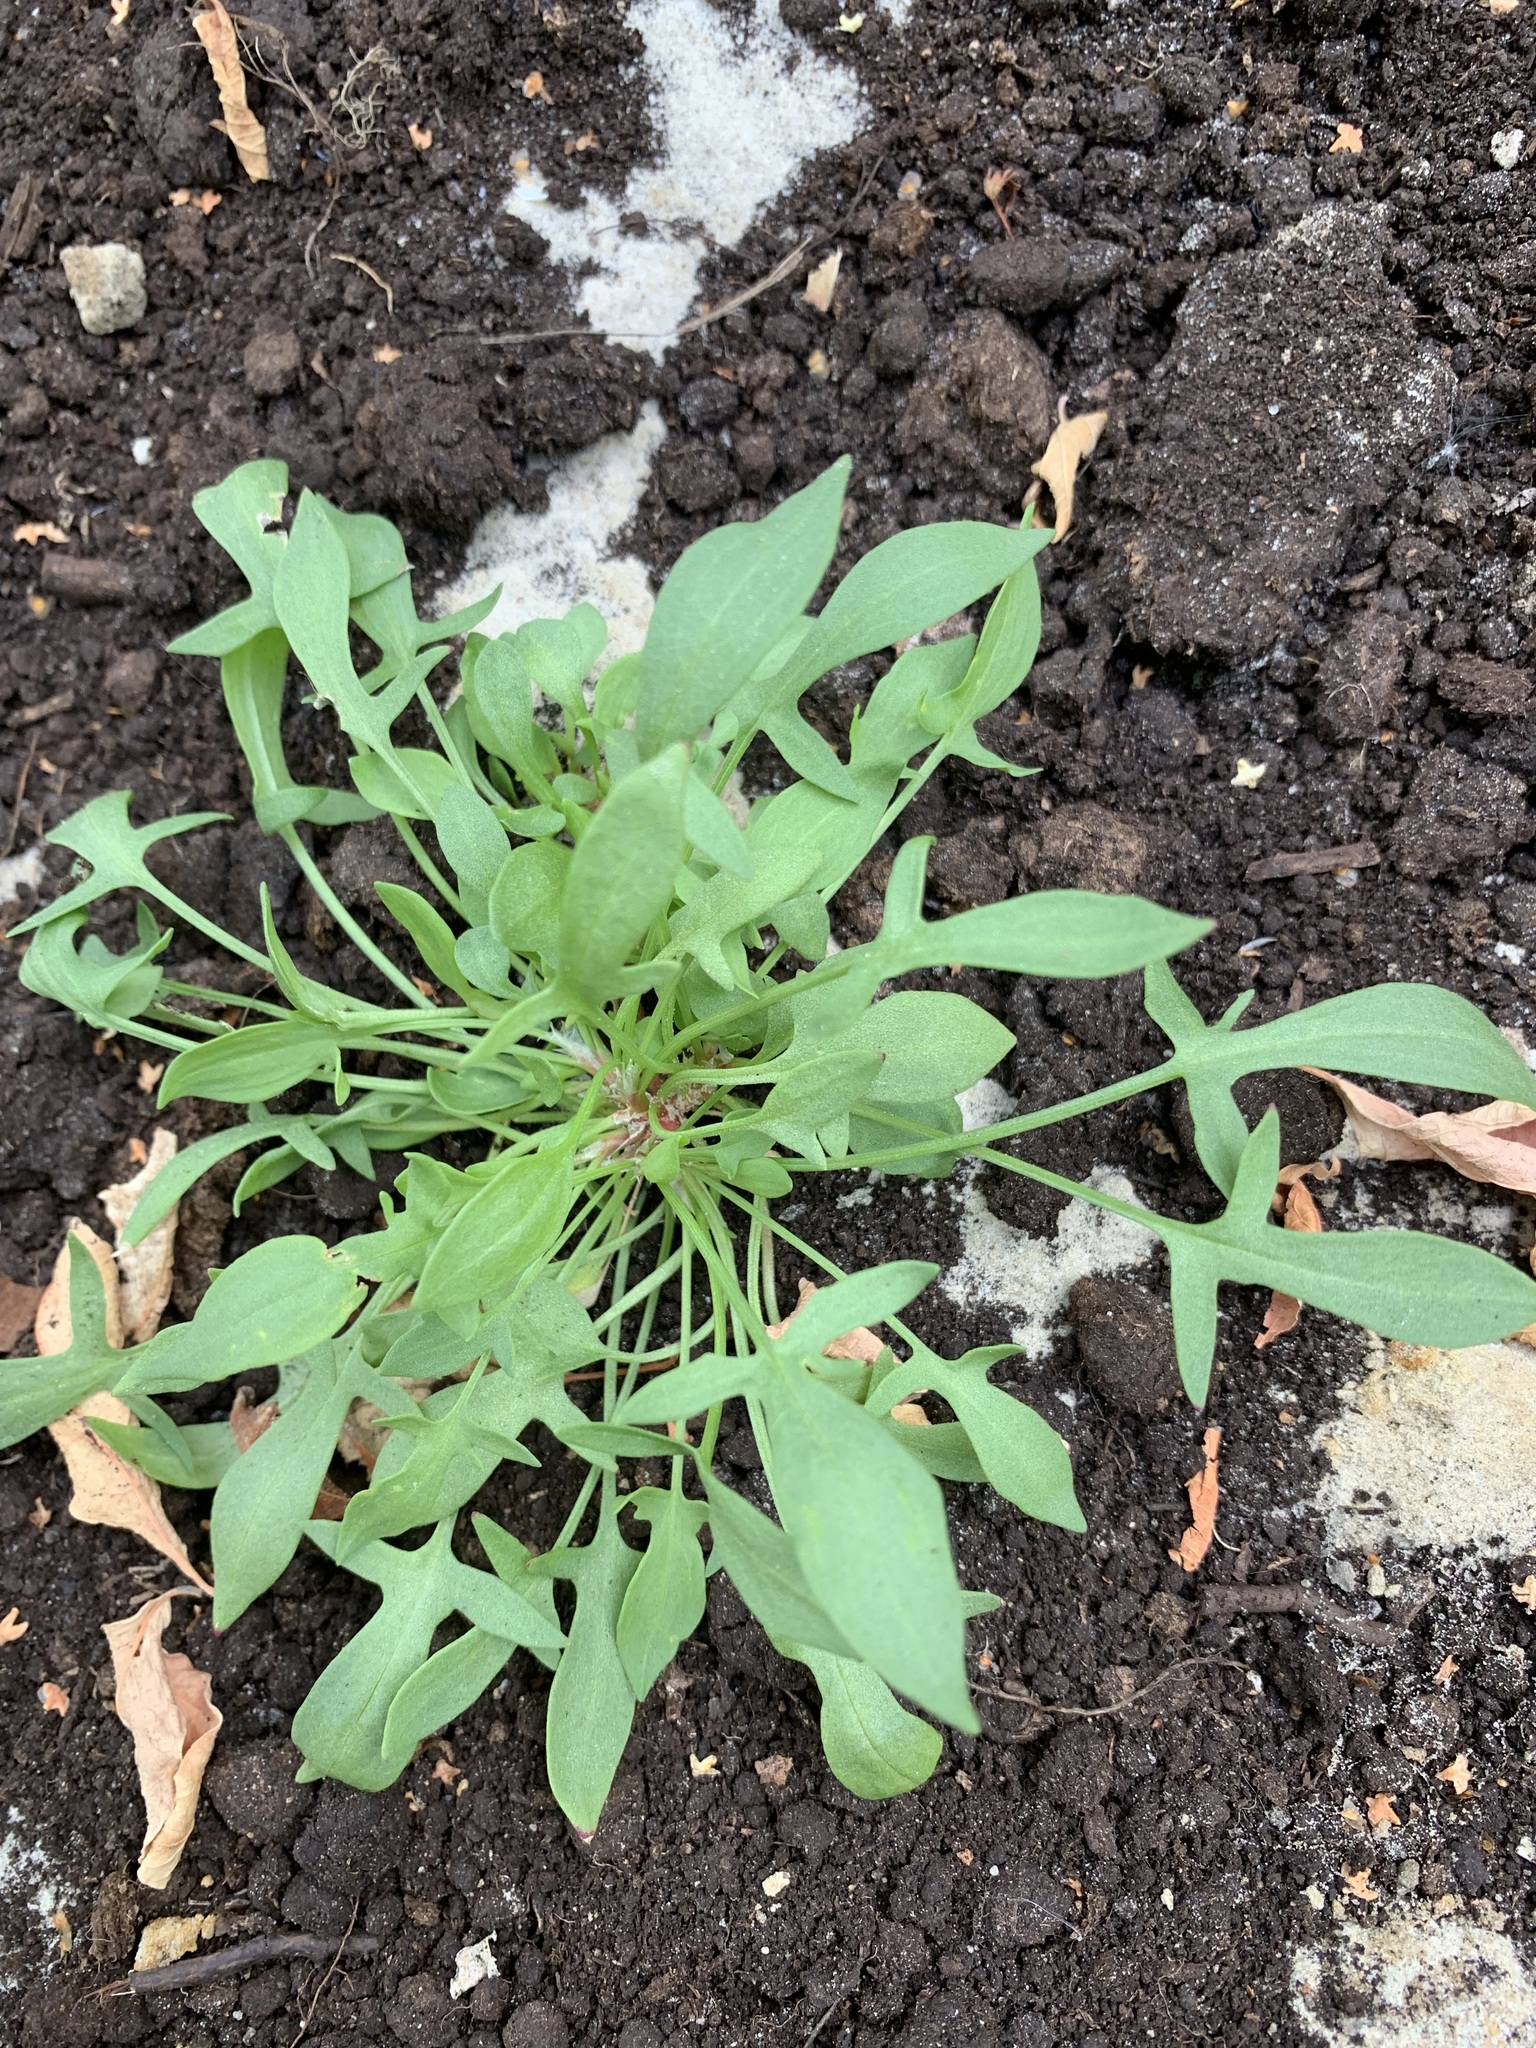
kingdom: Plantae
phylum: Tracheophyta
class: Magnoliopsida
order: Caryophyllales
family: Polygonaceae
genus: Rumex
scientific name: Rumex acetosella
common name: Common sheep sorrel
